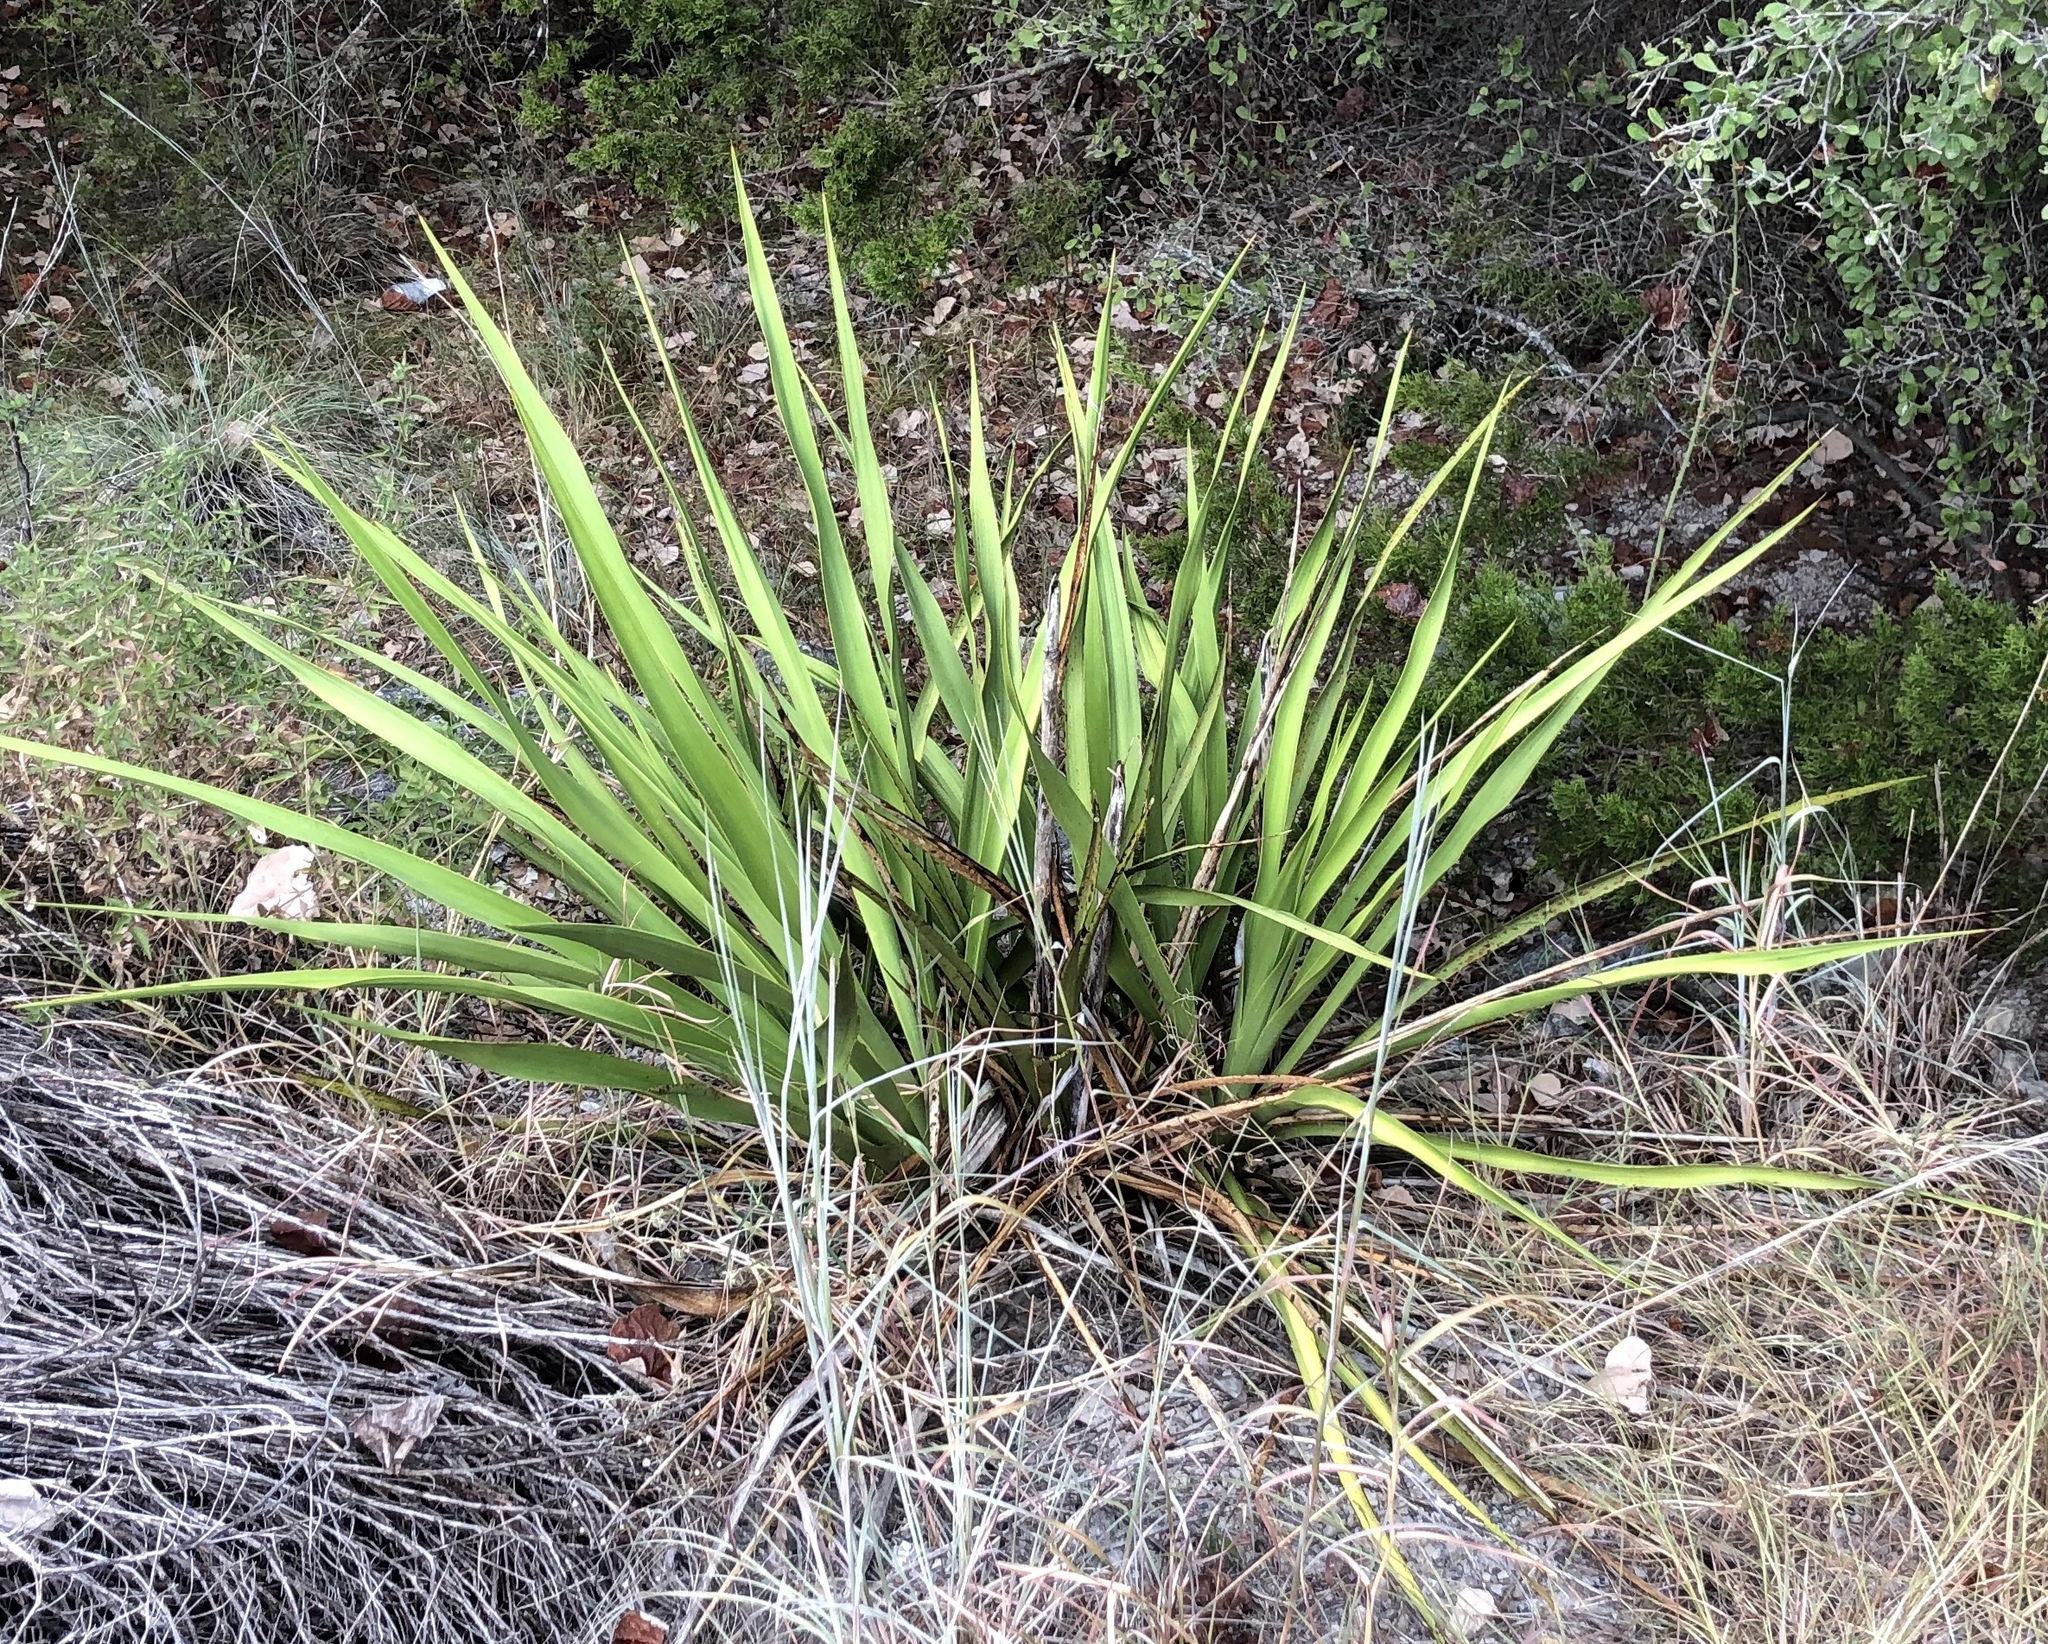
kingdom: Plantae
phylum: Tracheophyta
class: Liliopsida
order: Asparagales
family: Asparagaceae
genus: Yucca
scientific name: Yucca rupicola
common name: Twisted-leaf spanish-dagger
